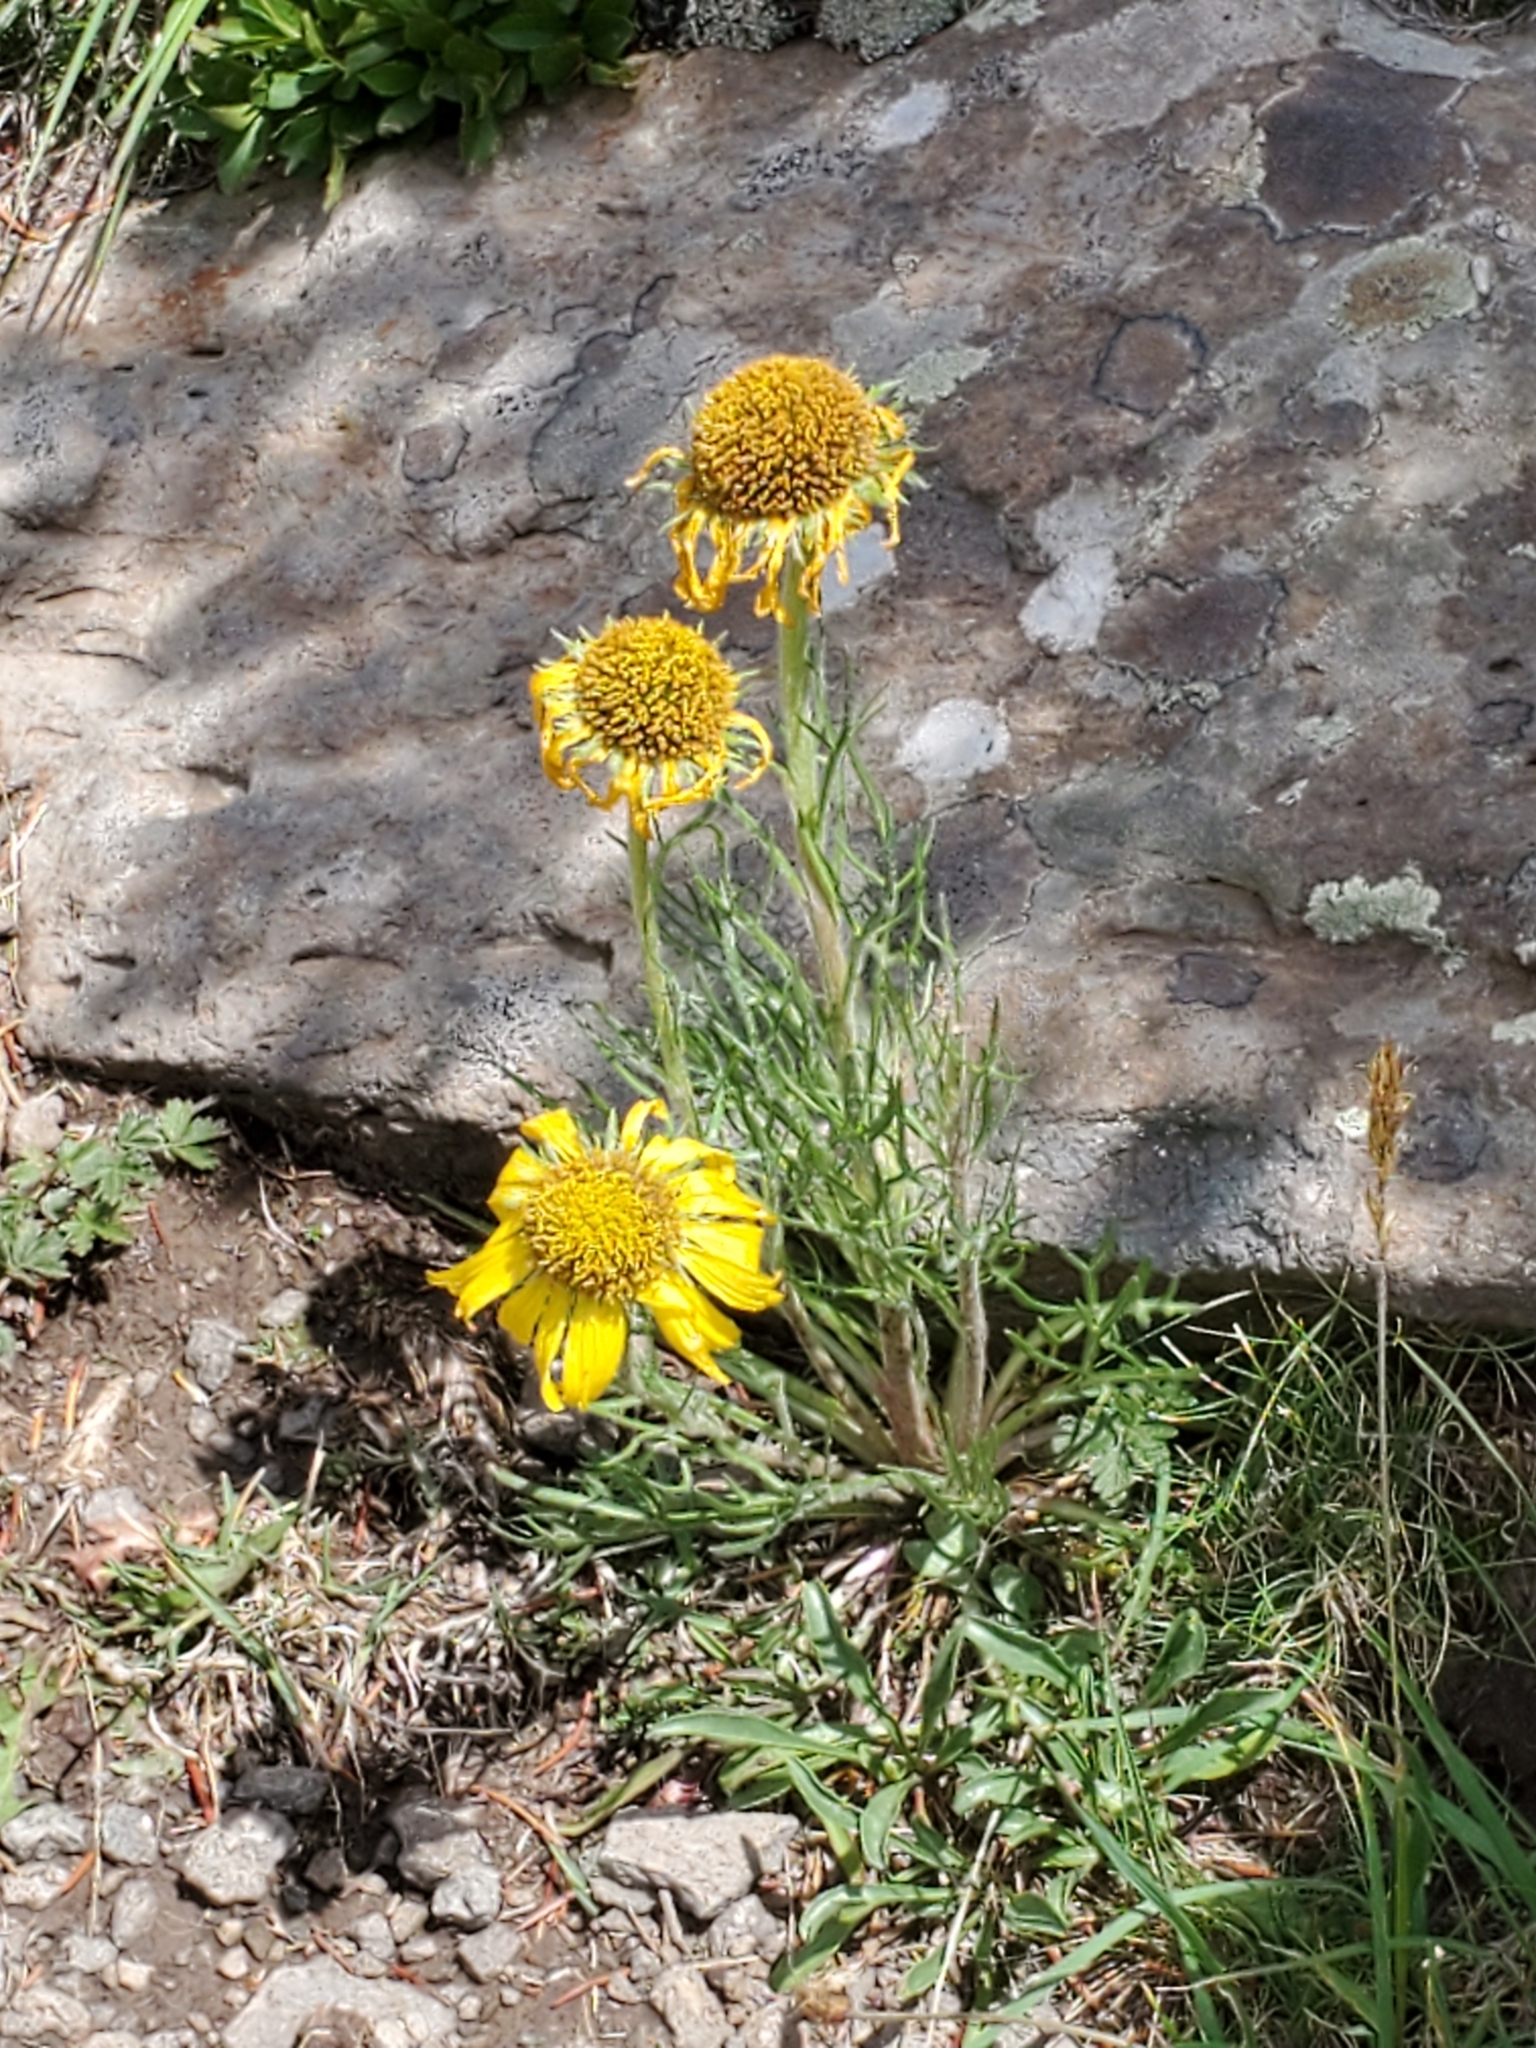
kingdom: Plantae
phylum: Tracheophyta
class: Magnoliopsida
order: Asterales
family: Asteraceae
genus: Hymenoxys
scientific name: Hymenoxys grandiflora
